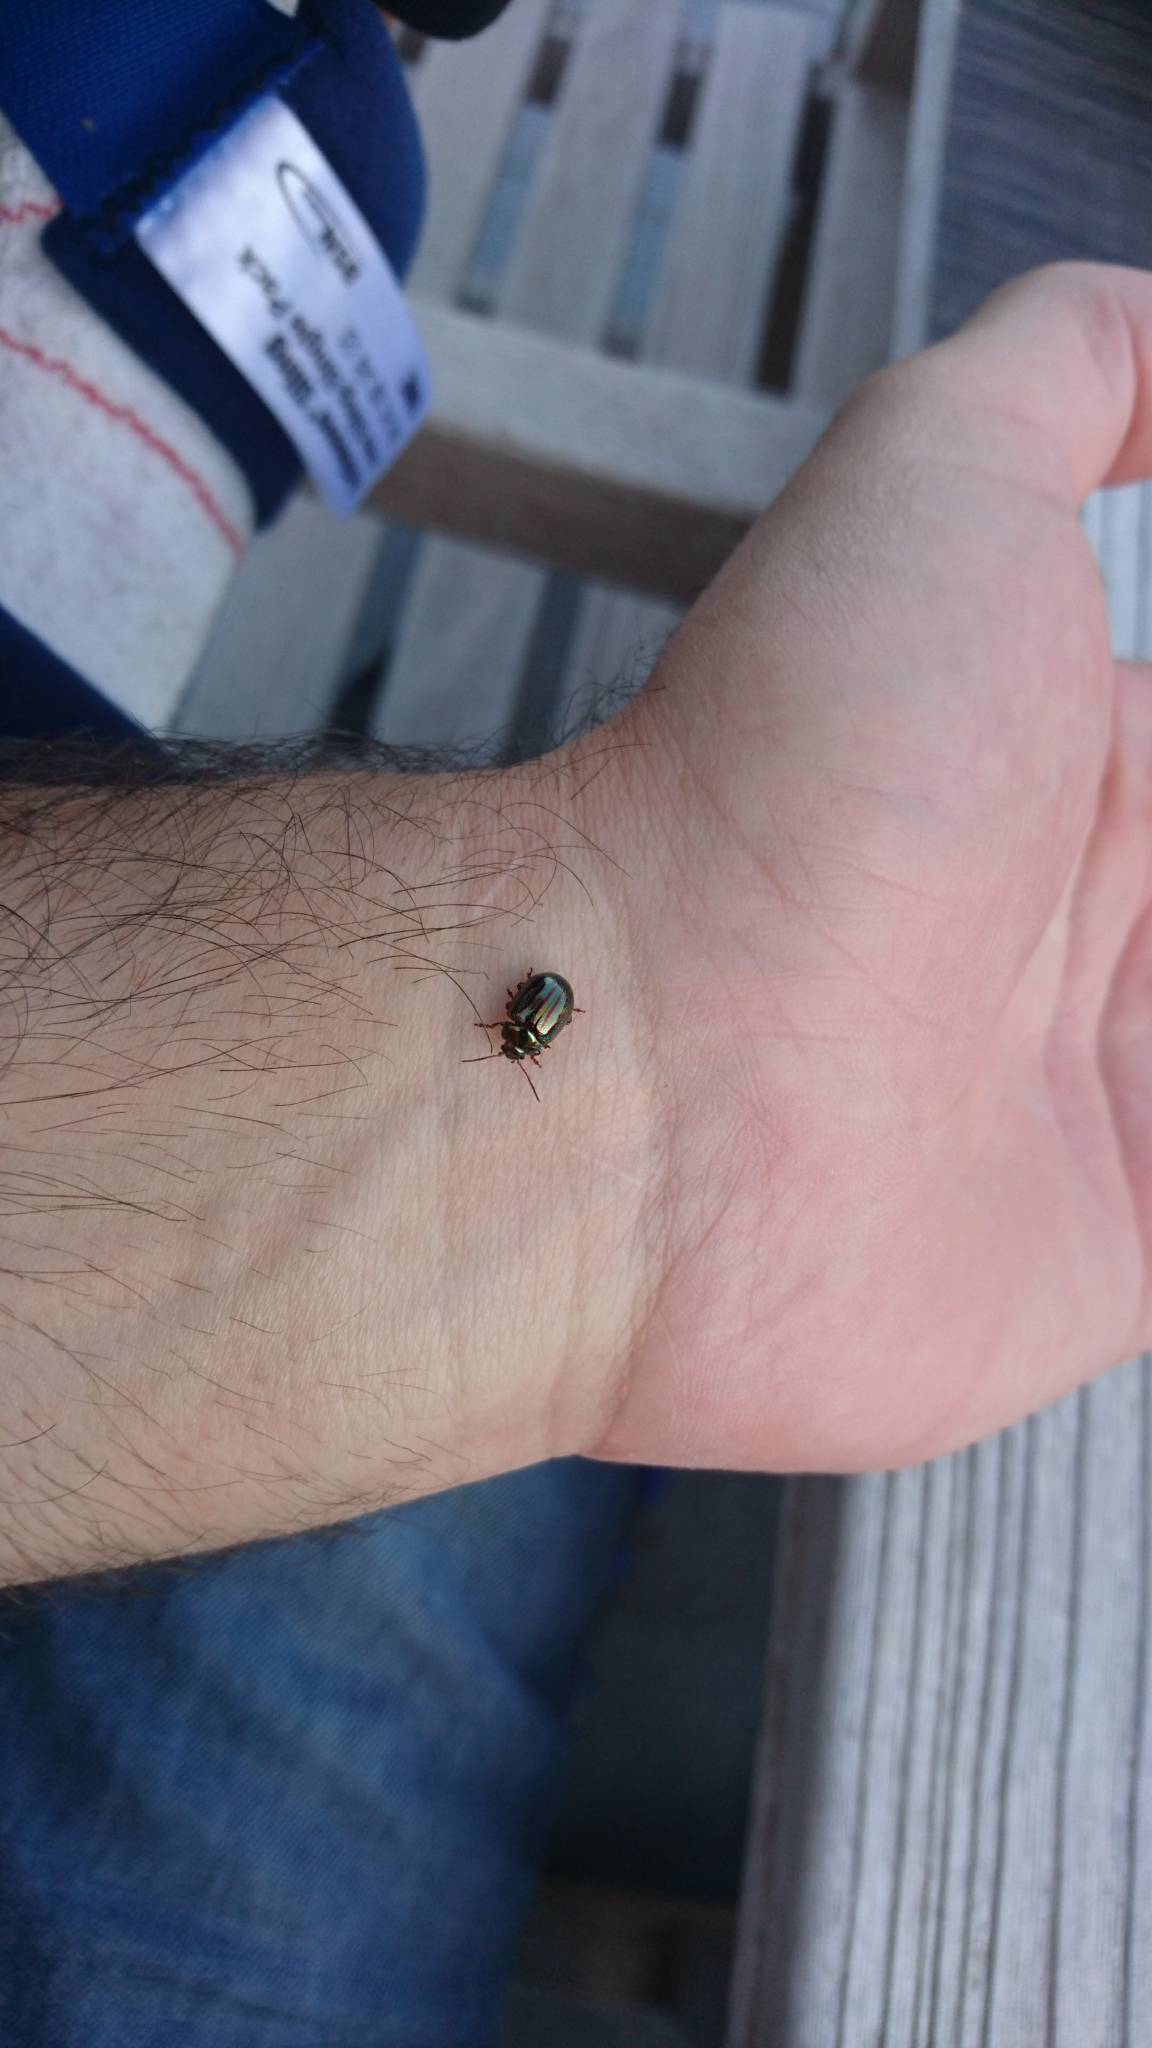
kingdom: Animalia
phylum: Arthropoda
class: Insecta
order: Coleoptera
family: Chrysomelidae
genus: Chrysolina
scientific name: Chrysolina americana
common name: Rosemary beetle
